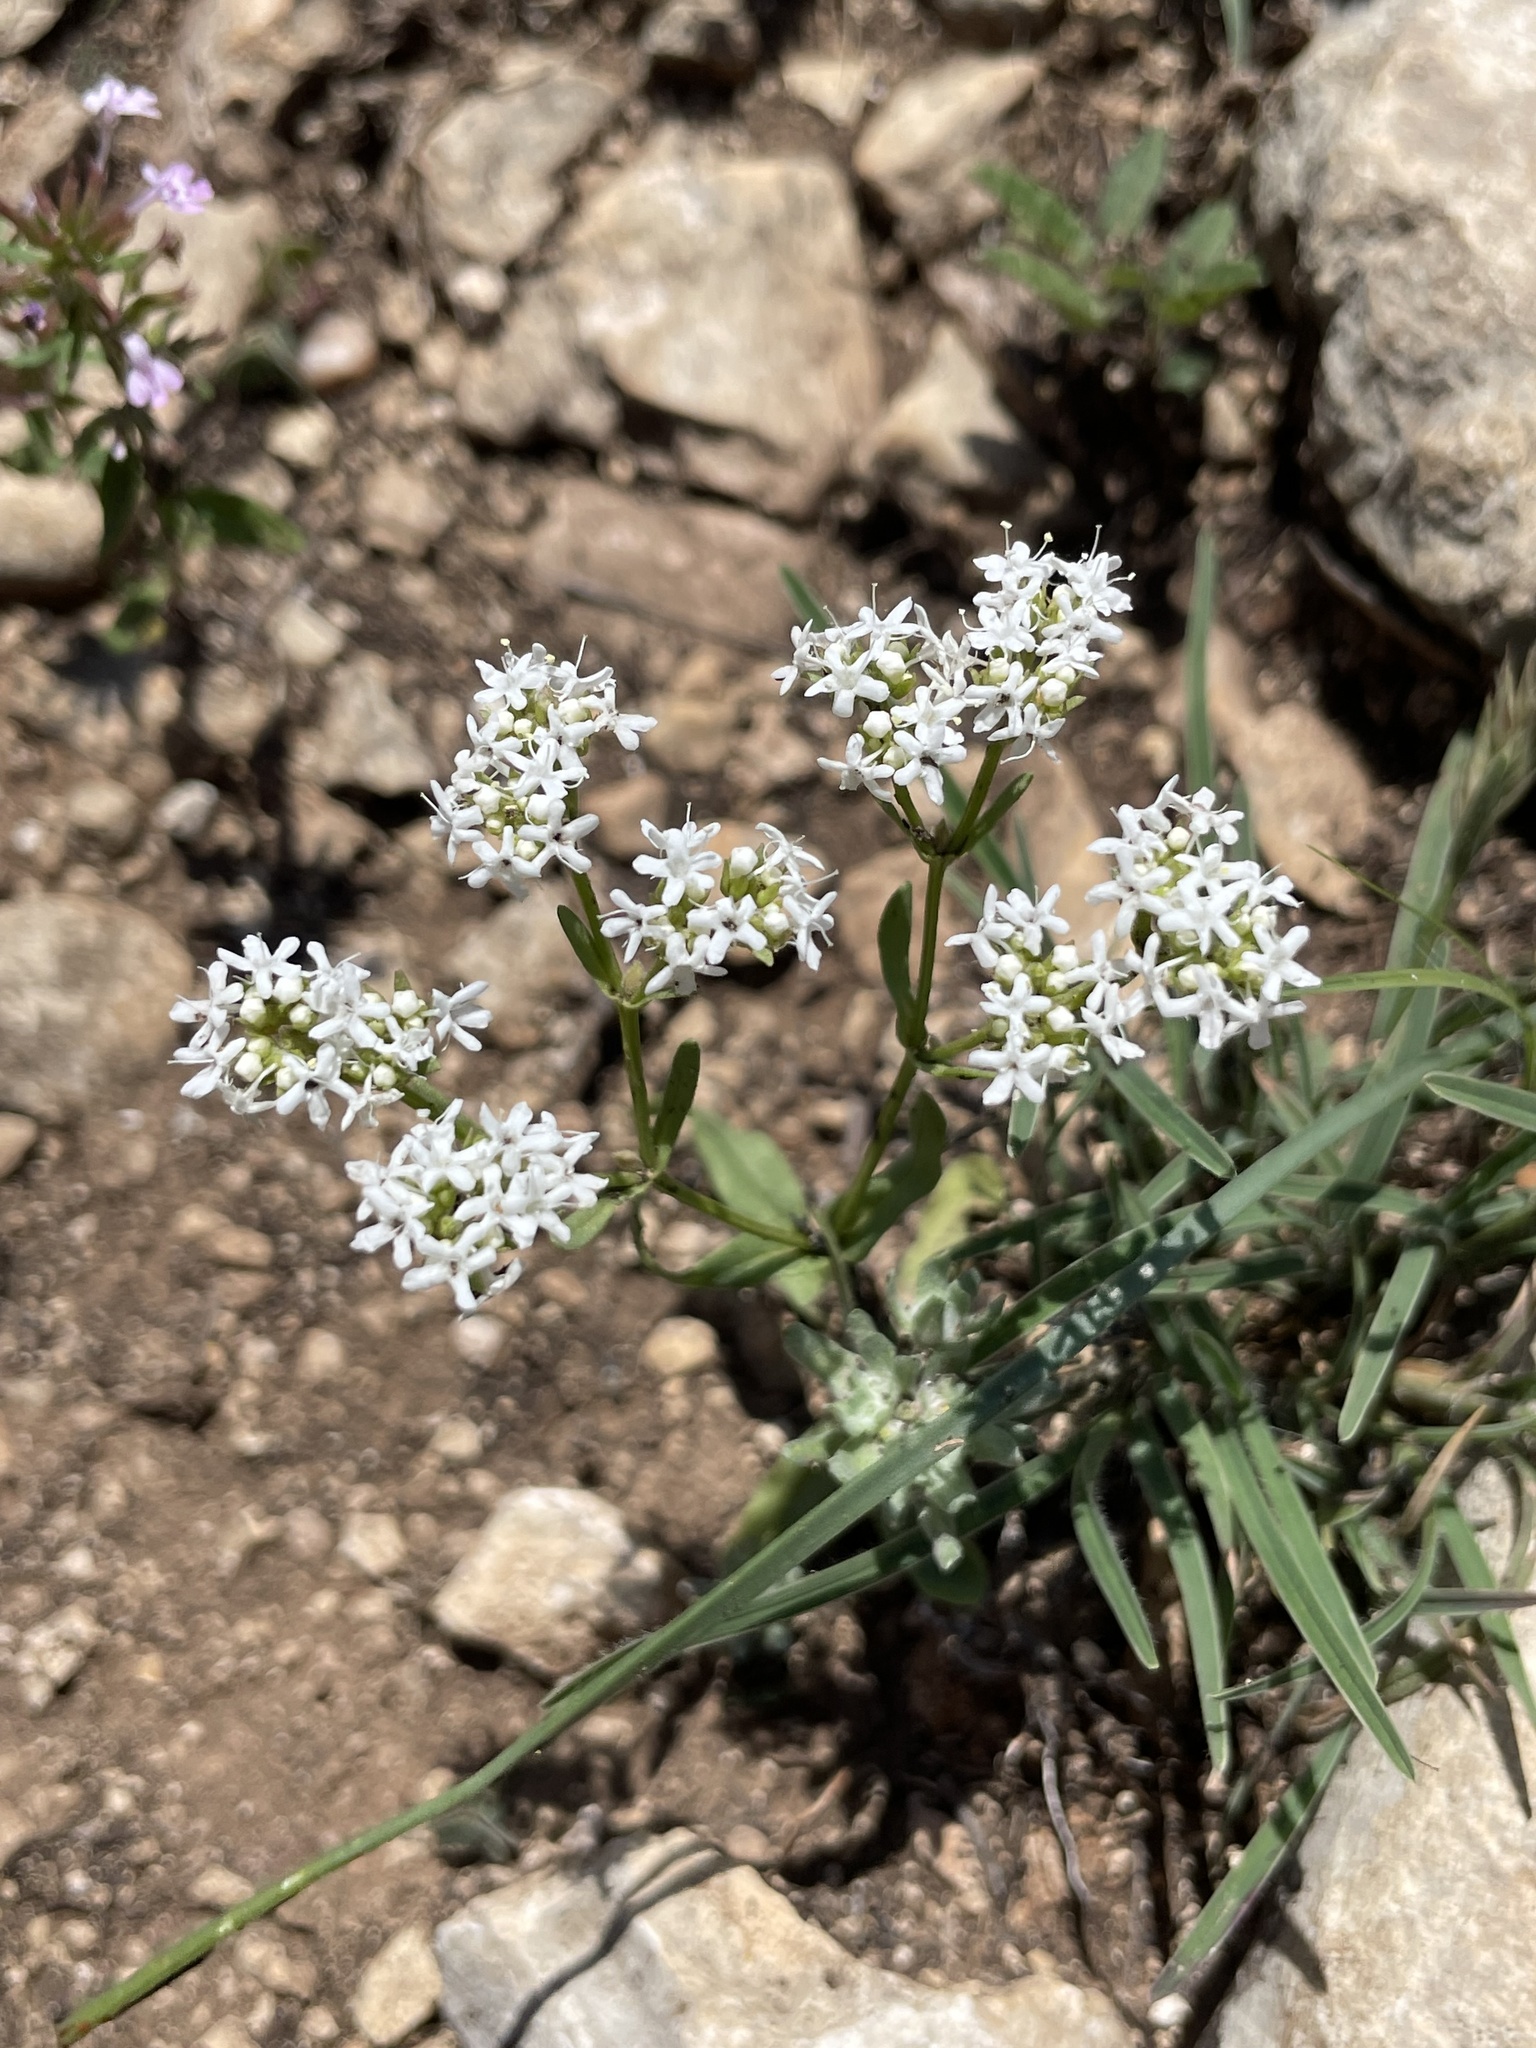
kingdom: Plantae
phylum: Tracheophyta
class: Magnoliopsida
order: Dipsacales
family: Caprifoliaceae
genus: Valerianella
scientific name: Valerianella amarella
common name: Hariy cornsalad
